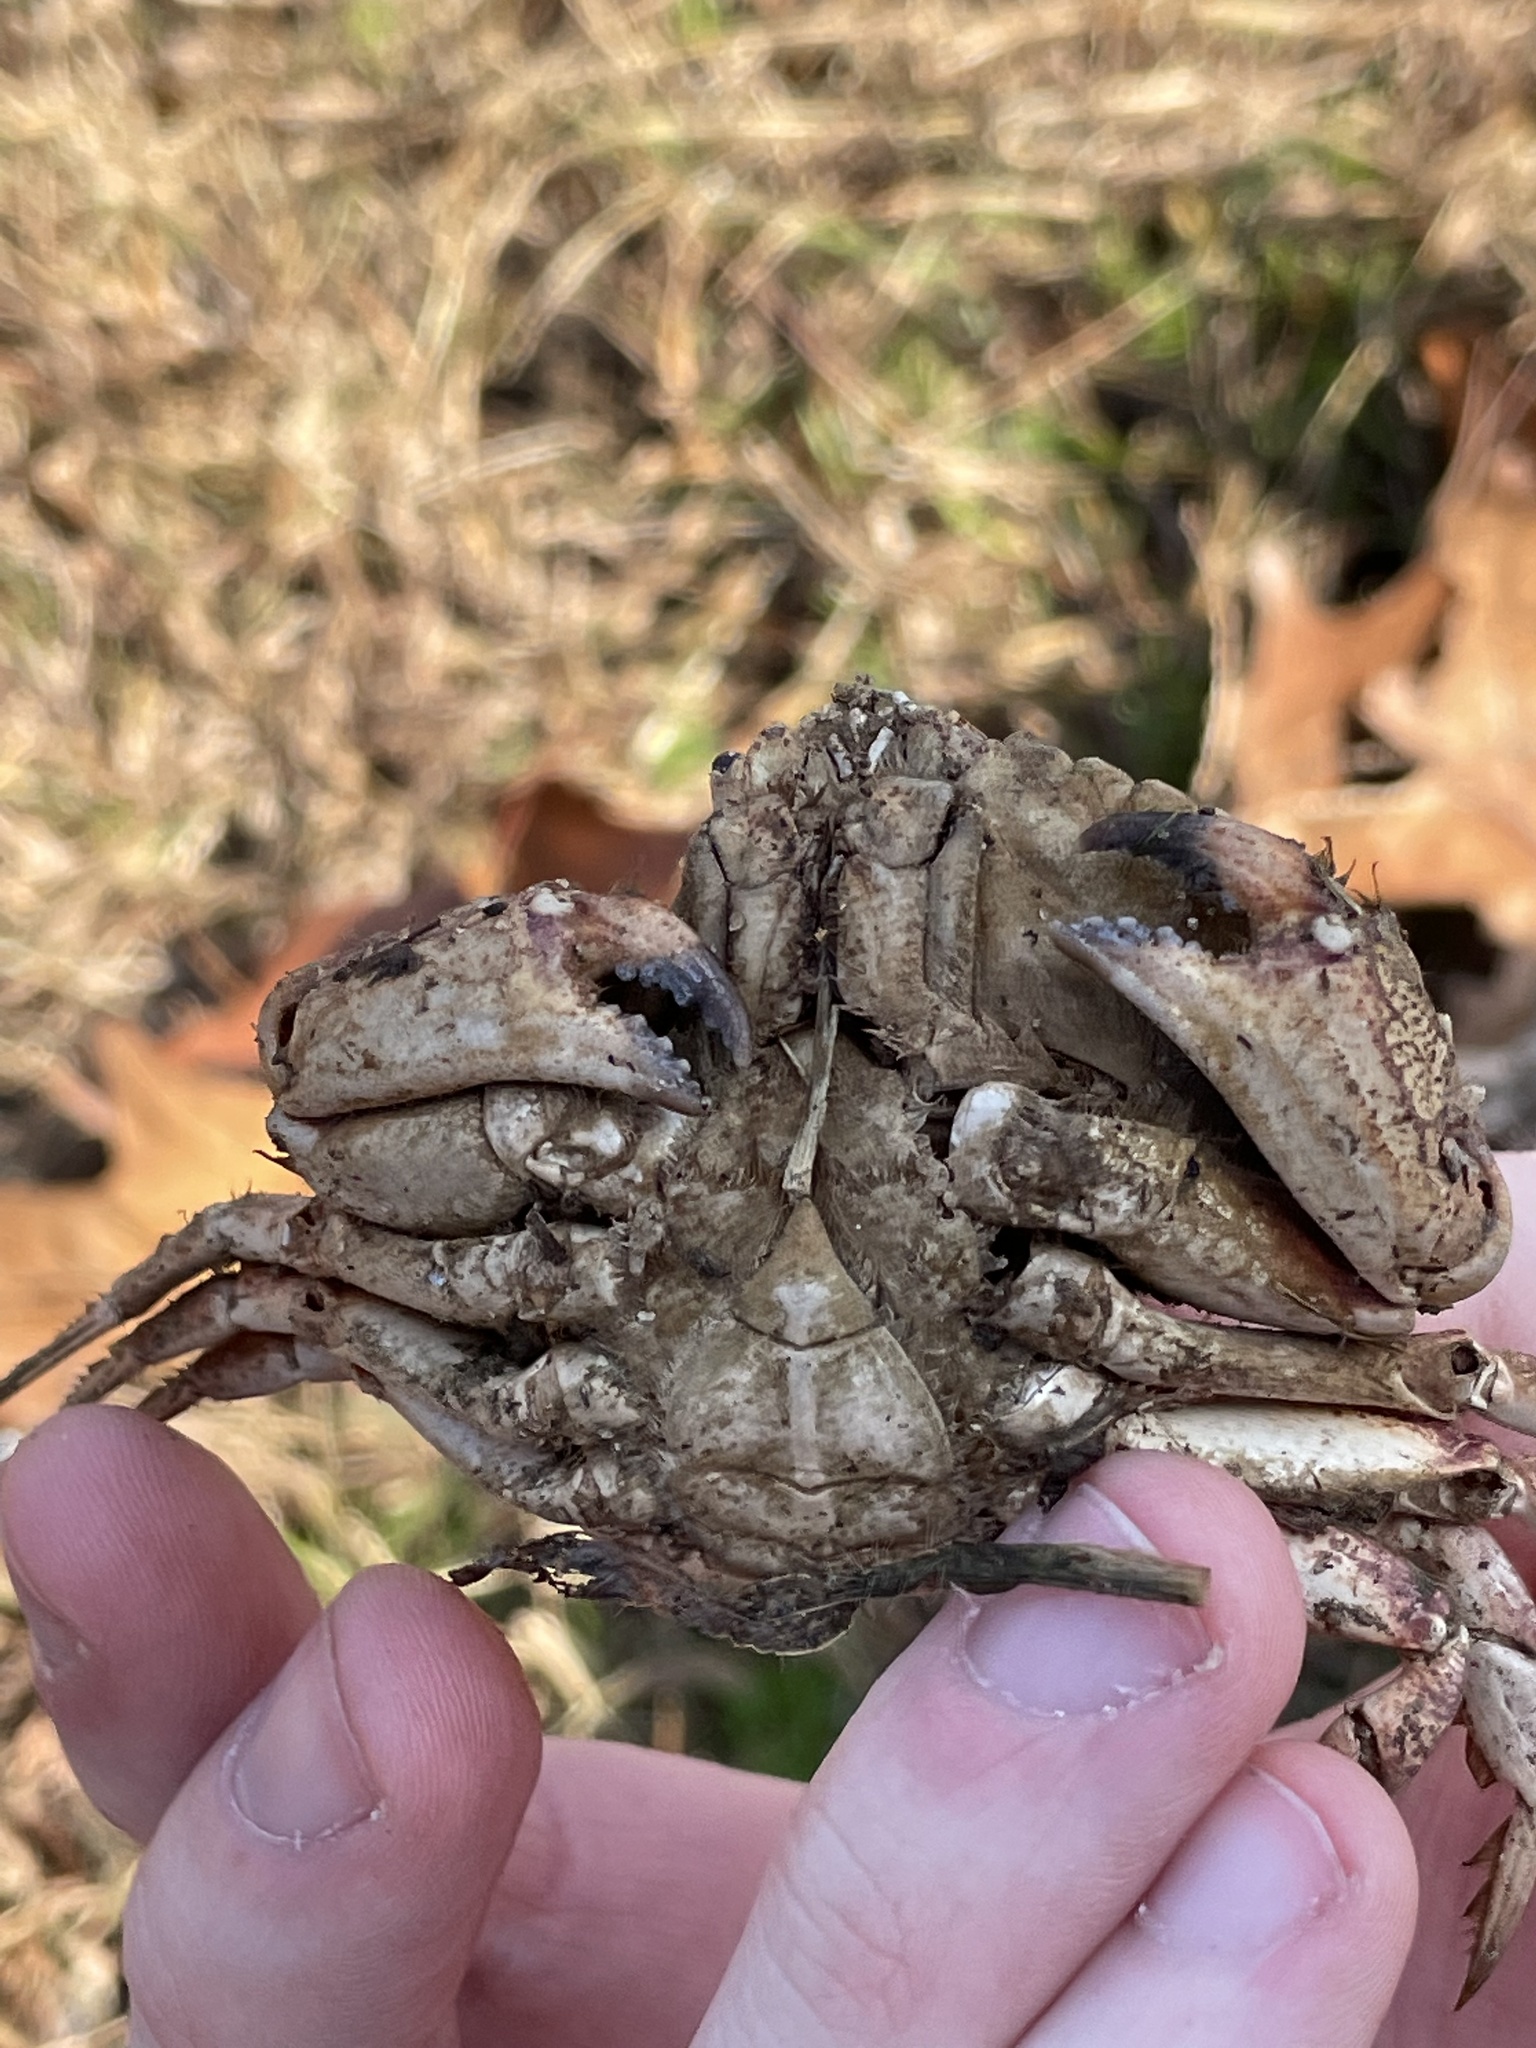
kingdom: Animalia
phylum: Arthropoda
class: Malacostraca
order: Decapoda
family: Cancridae
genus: Cancer
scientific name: Cancer irroratus
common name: Atlantic rock crab
